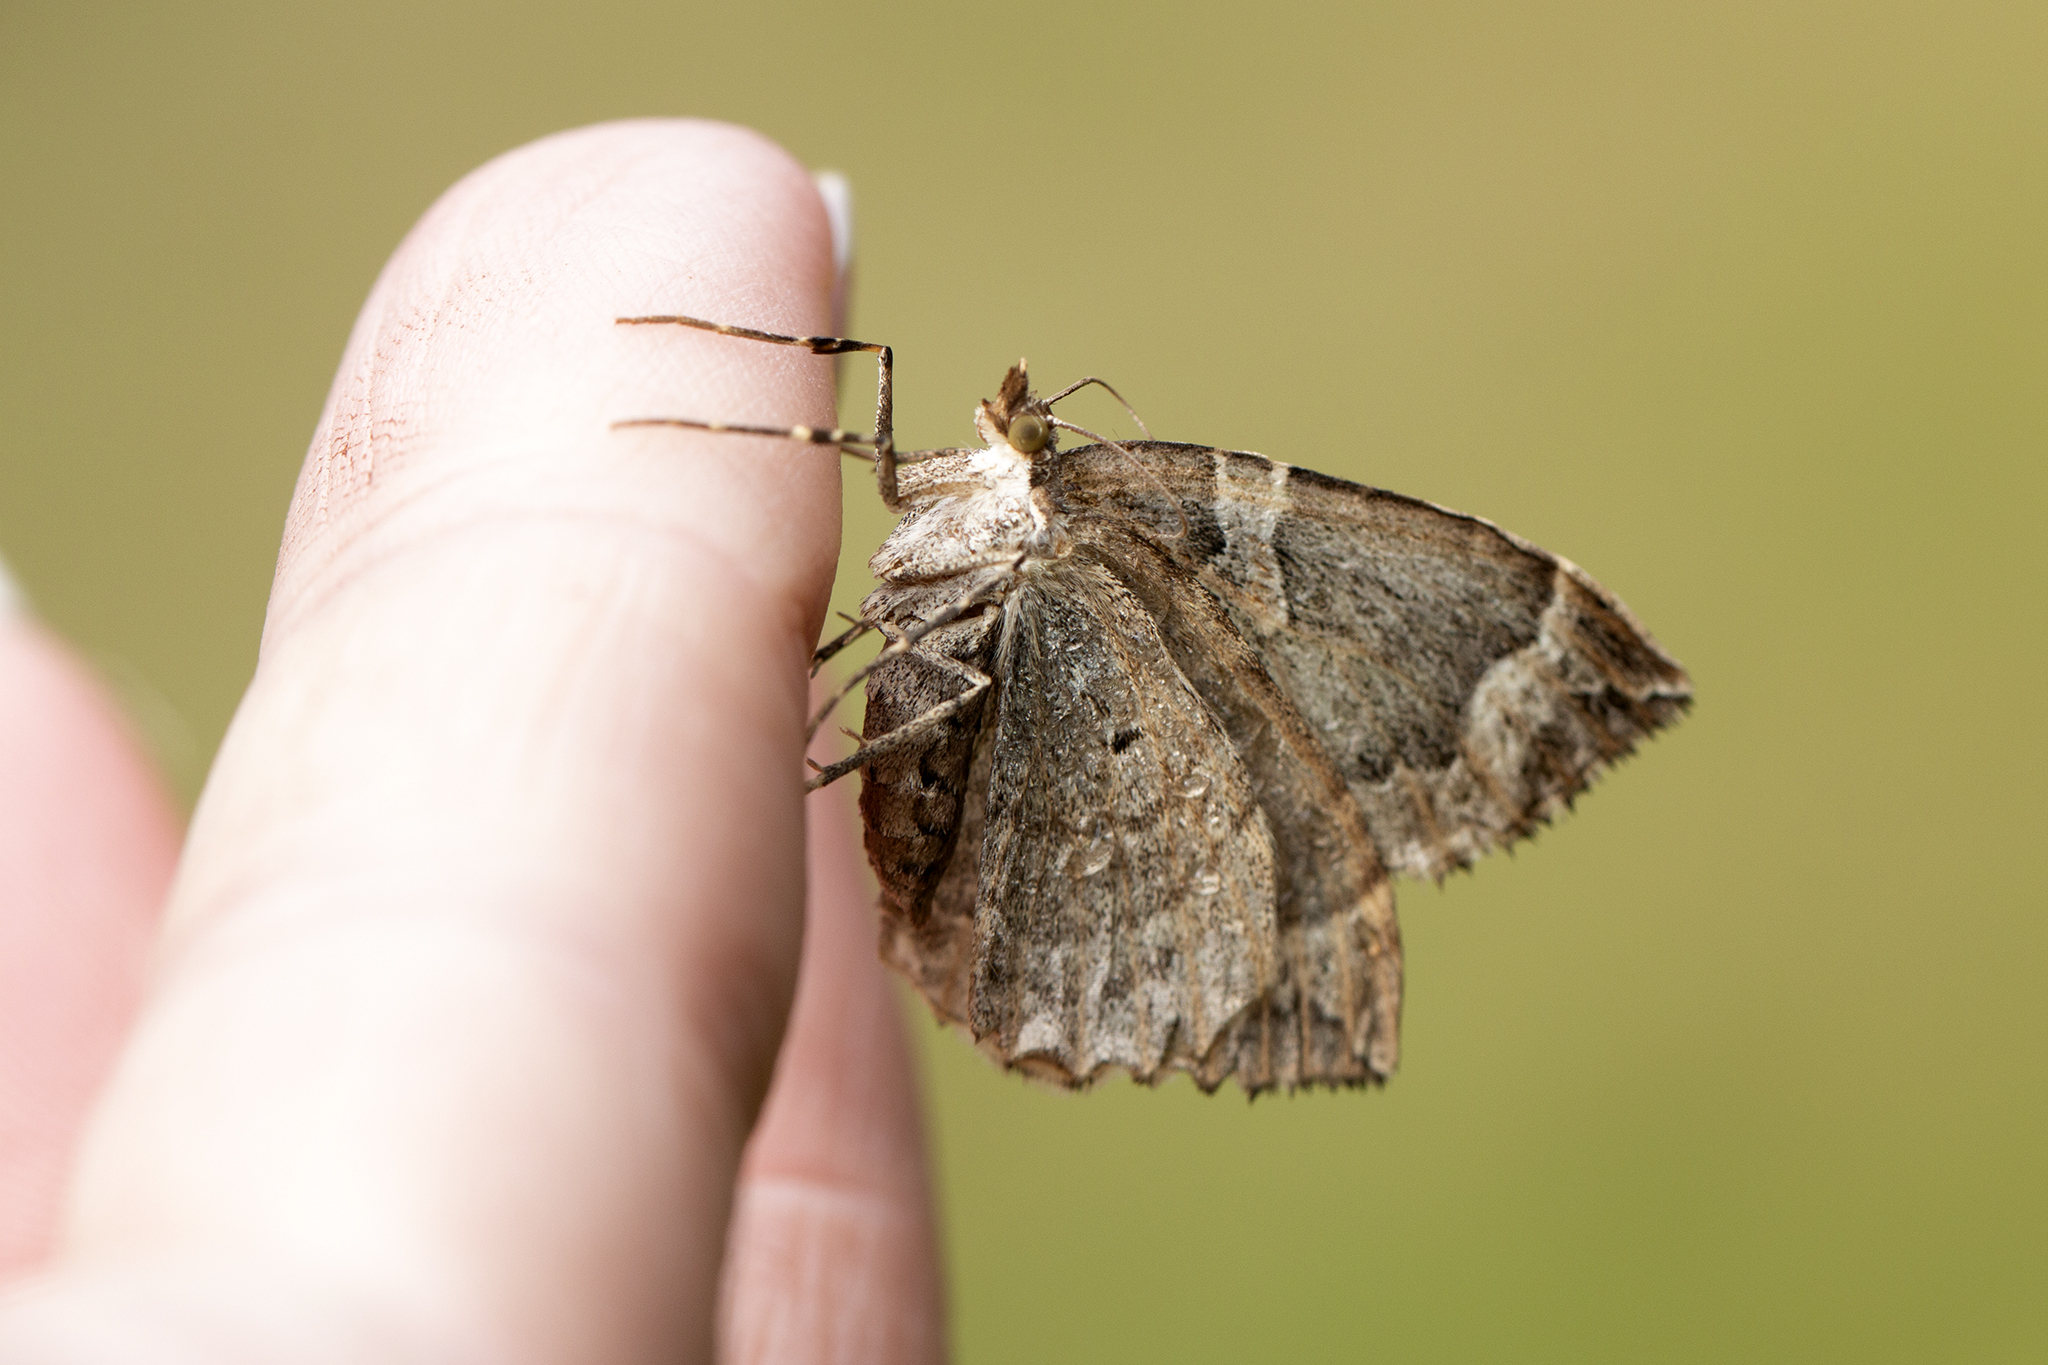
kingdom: Animalia
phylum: Arthropoda
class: Insecta
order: Lepidoptera
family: Geometridae
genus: Eulithis
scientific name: Eulithis prunata
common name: Phoenix
